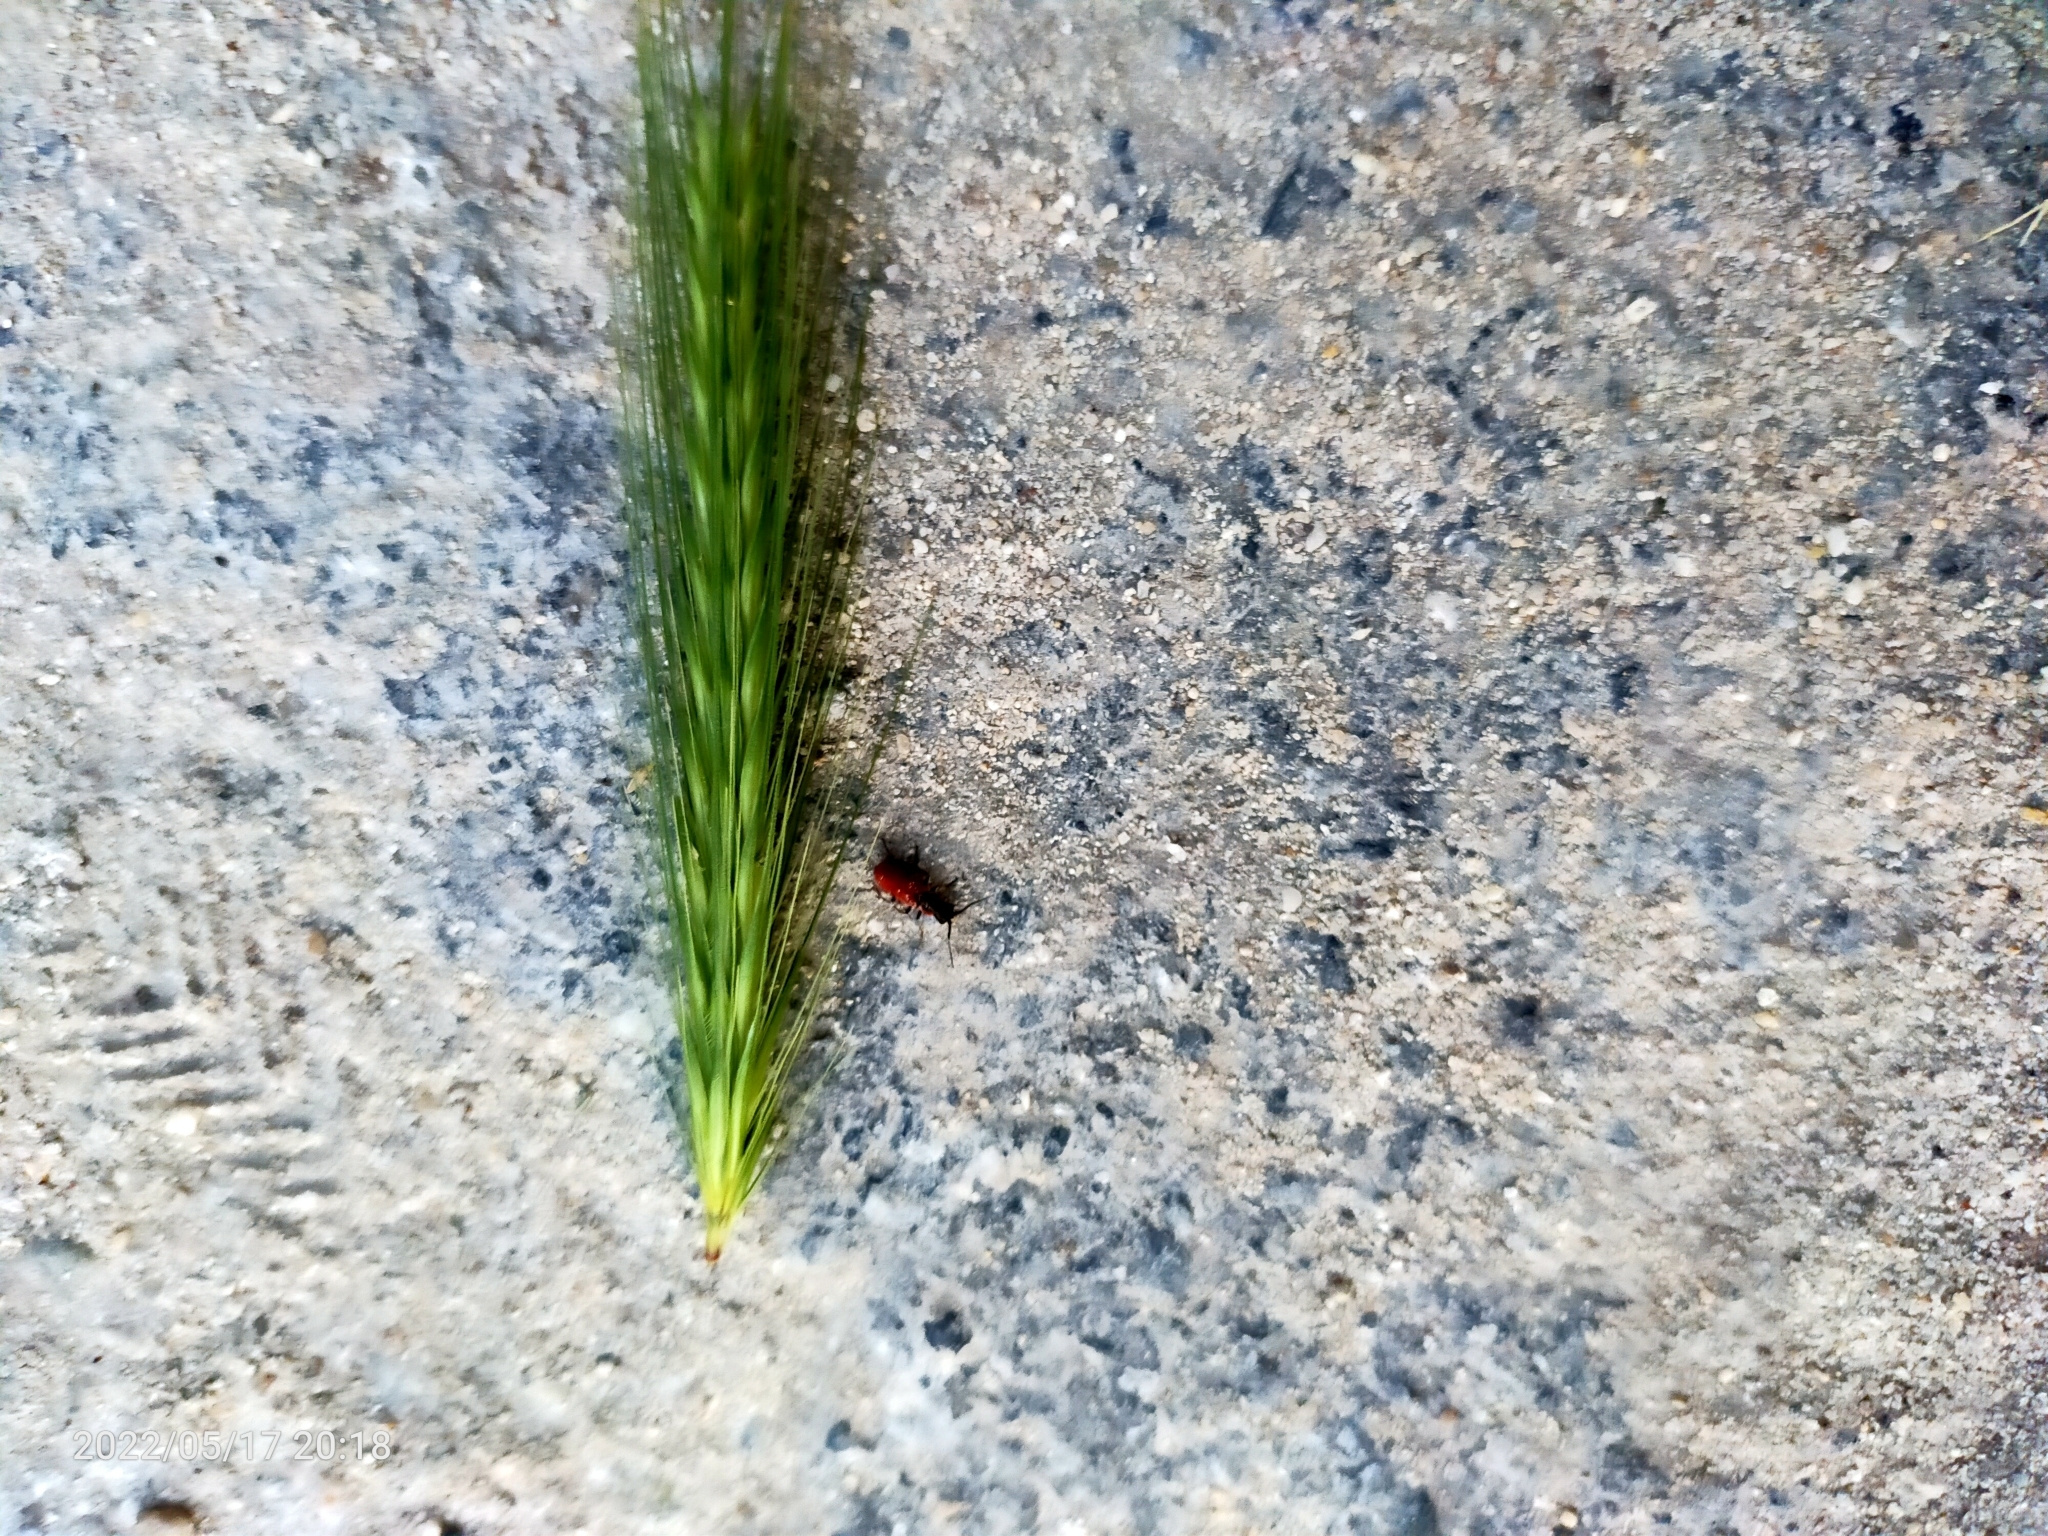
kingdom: Animalia
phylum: Arthropoda
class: Insecta
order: Coleoptera
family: Melyridae
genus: Malachius
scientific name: Malachius coccineus
